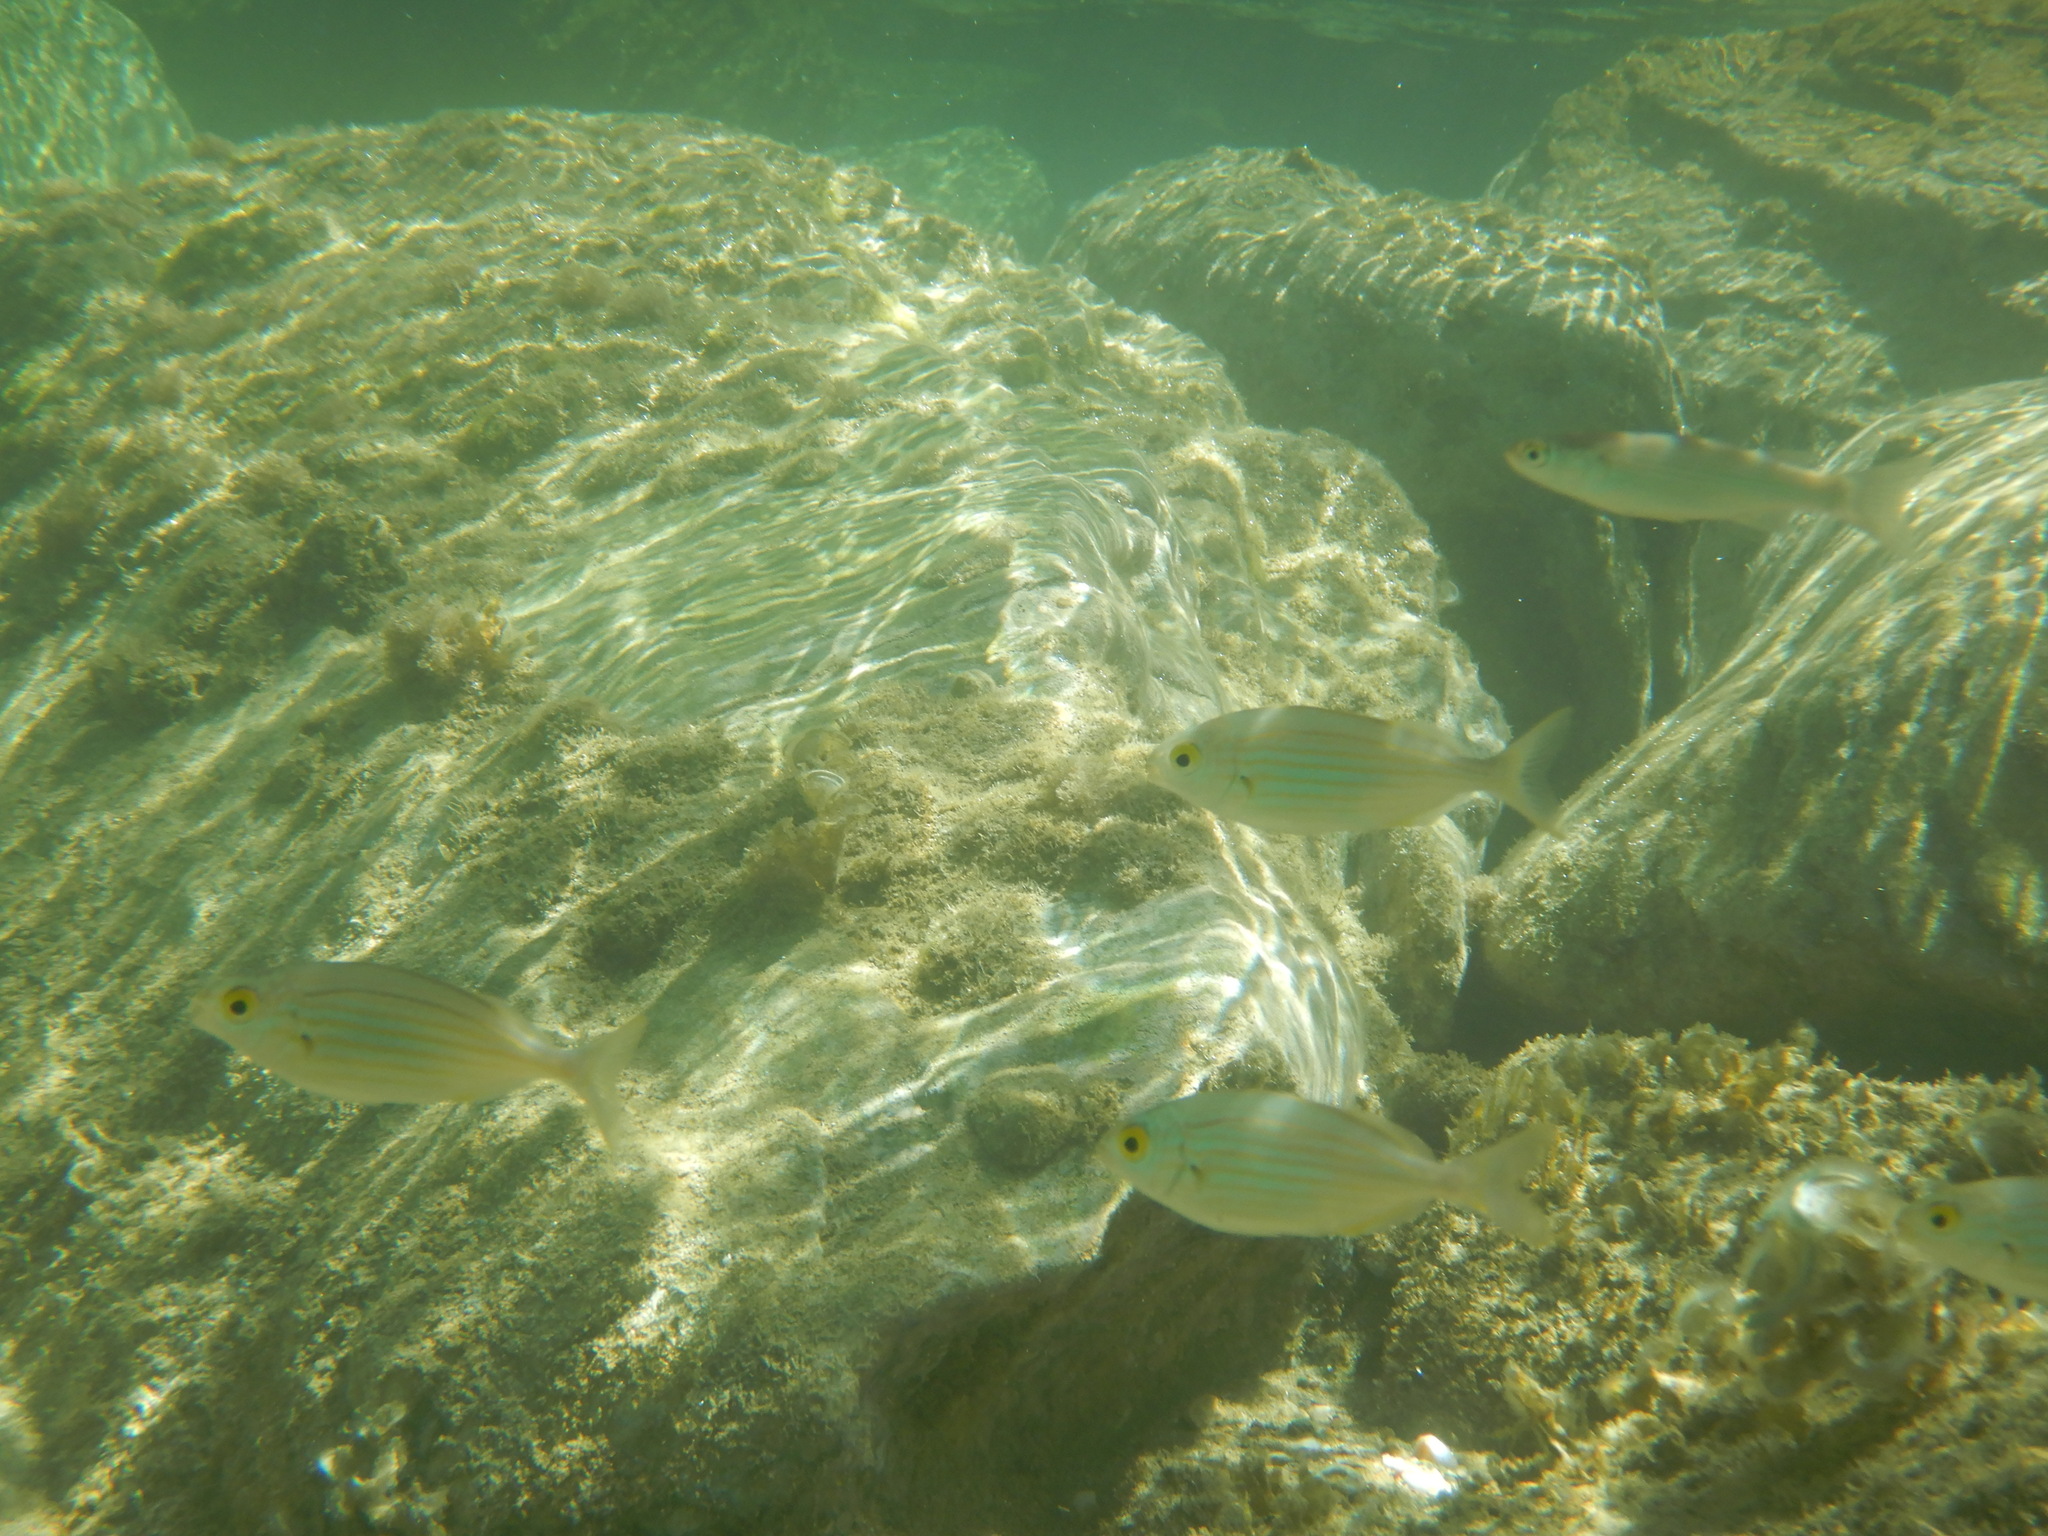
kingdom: Animalia
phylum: Chordata
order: Perciformes
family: Sparidae
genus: Sarpa
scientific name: Sarpa salpa
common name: Salema
